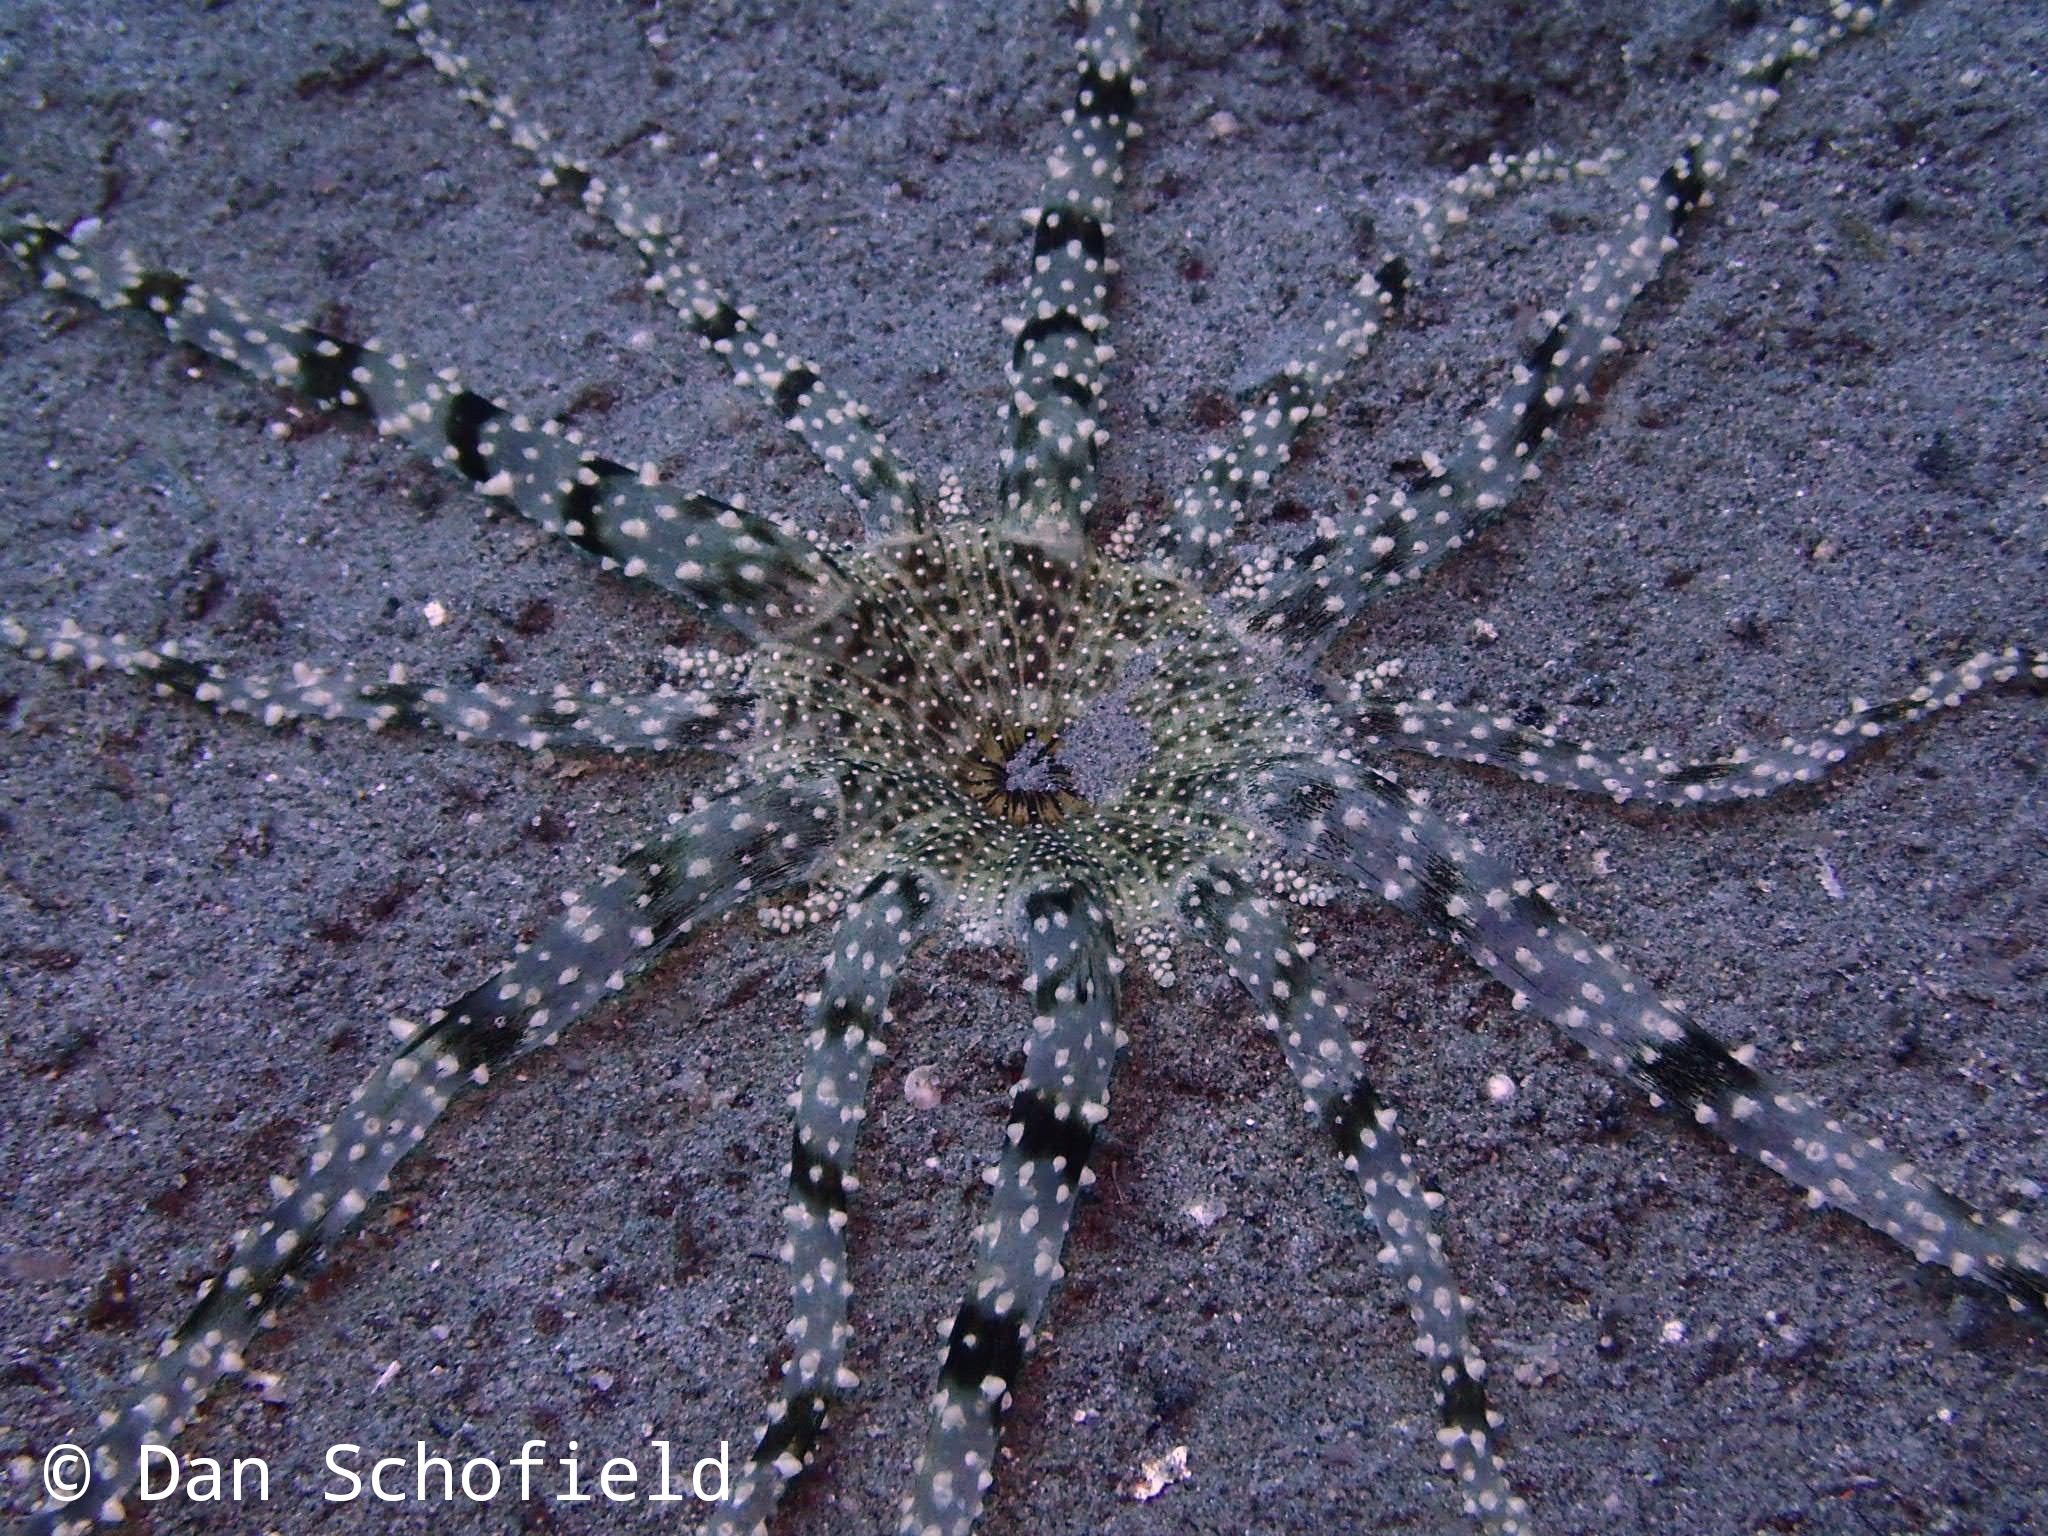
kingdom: Animalia
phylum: Cnidaria
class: Anthozoa
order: Actiniaria
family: Actinodendridae
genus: Actinostephanus
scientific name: Actinostephanus haeckeli
